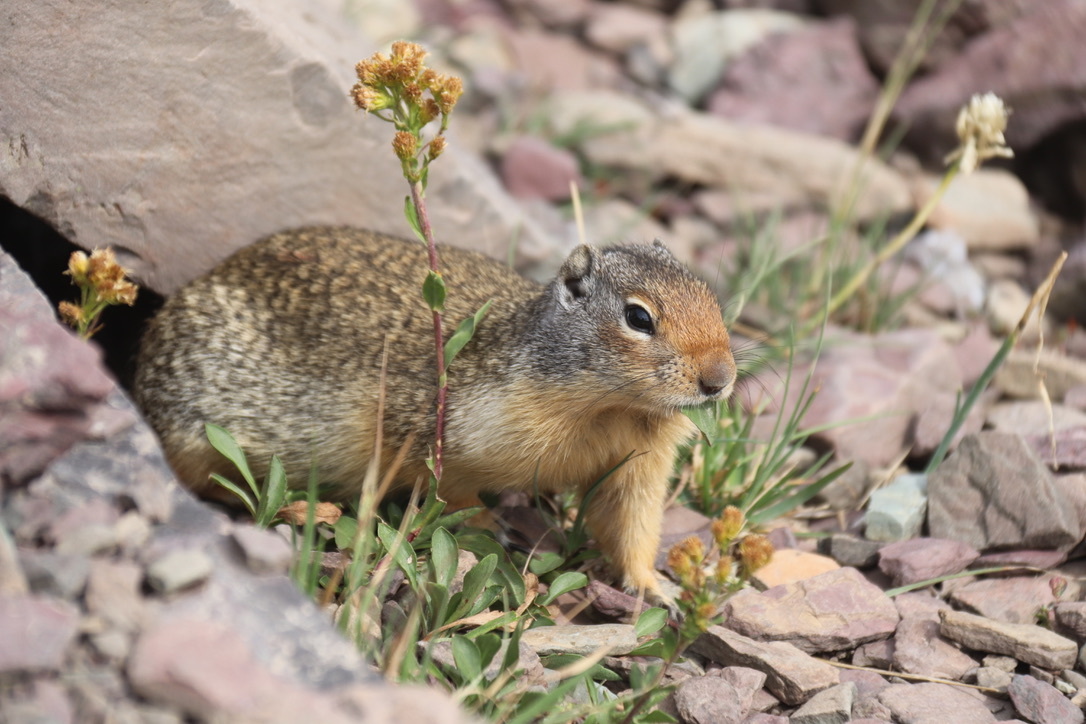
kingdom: Animalia
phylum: Chordata
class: Mammalia
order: Rodentia
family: Sciuridae
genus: Urocitellus
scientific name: Urocitellus columbianus
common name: Columbian ground squirrel
